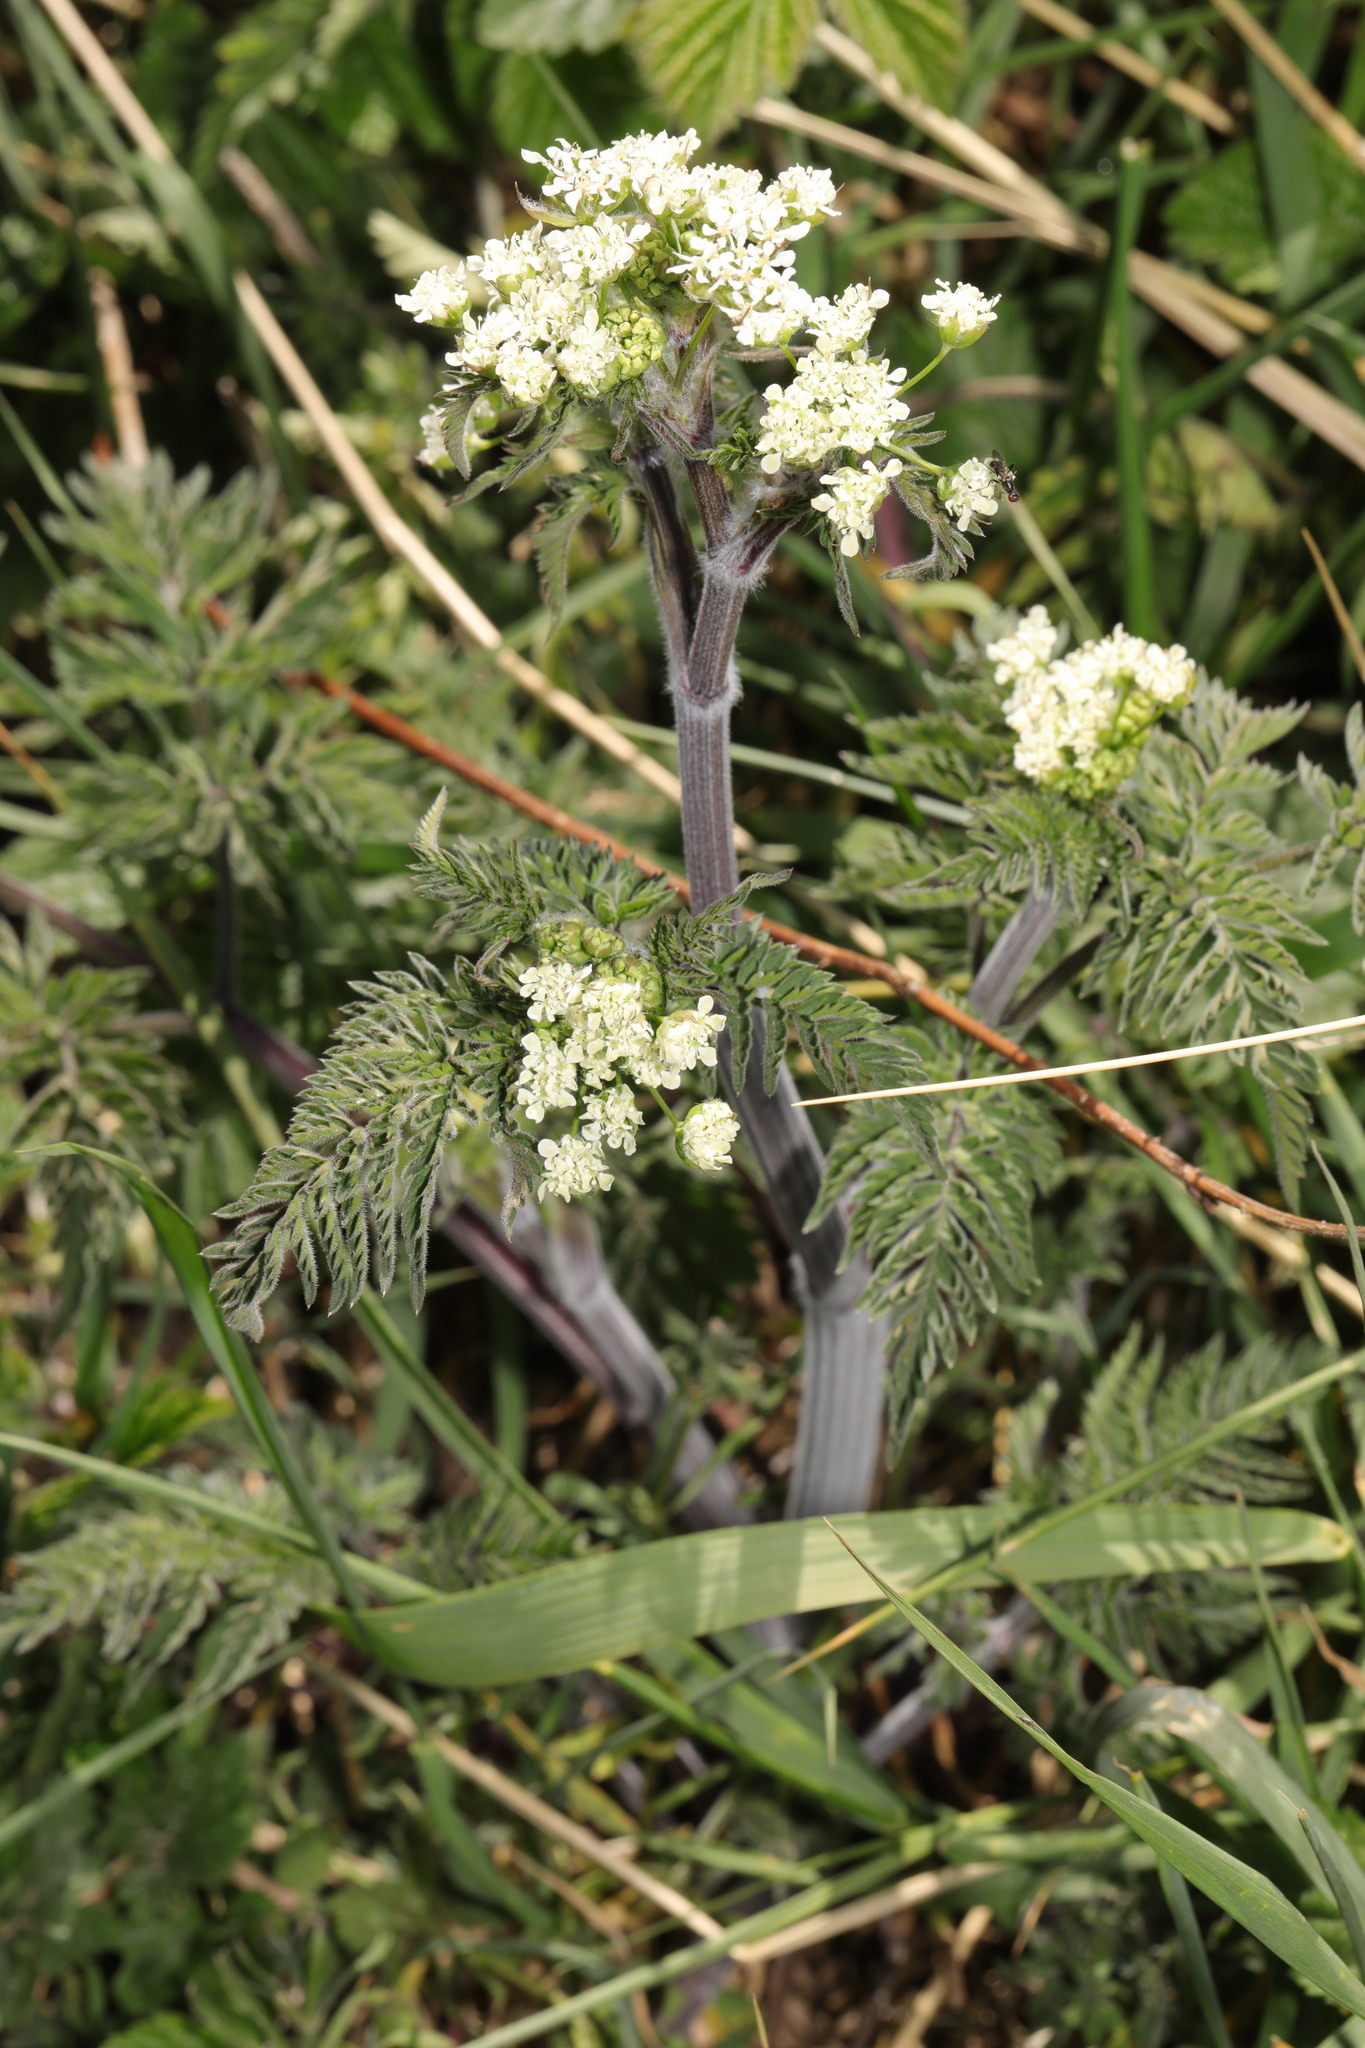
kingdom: Plantae
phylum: Tracheophyta
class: Magnoliopsida
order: Apiales
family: Apiaceae
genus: Anthriscus
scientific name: Anthriscus sylvestris
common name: Cow parsley
